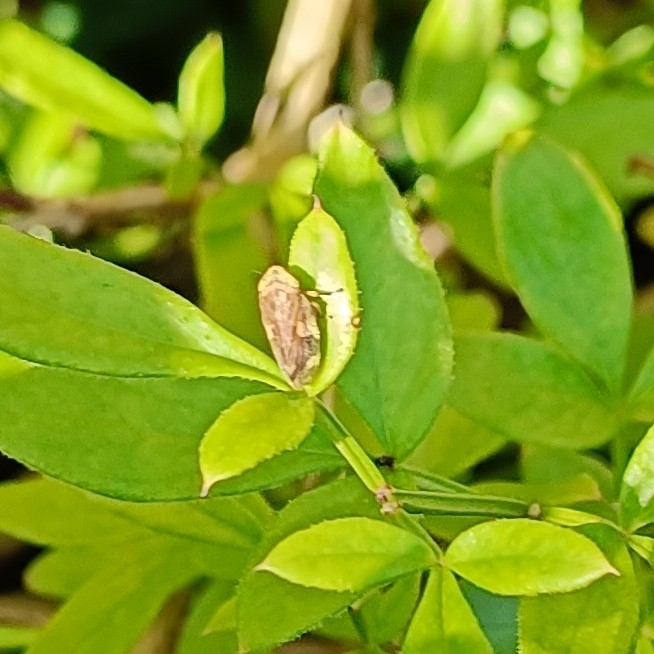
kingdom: Animalia
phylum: Arthropoda
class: Insecta
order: Hemiptera
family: Aphrophoridae
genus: Philaenus
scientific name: Philaenus spumarius
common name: Meadow spittlebug
